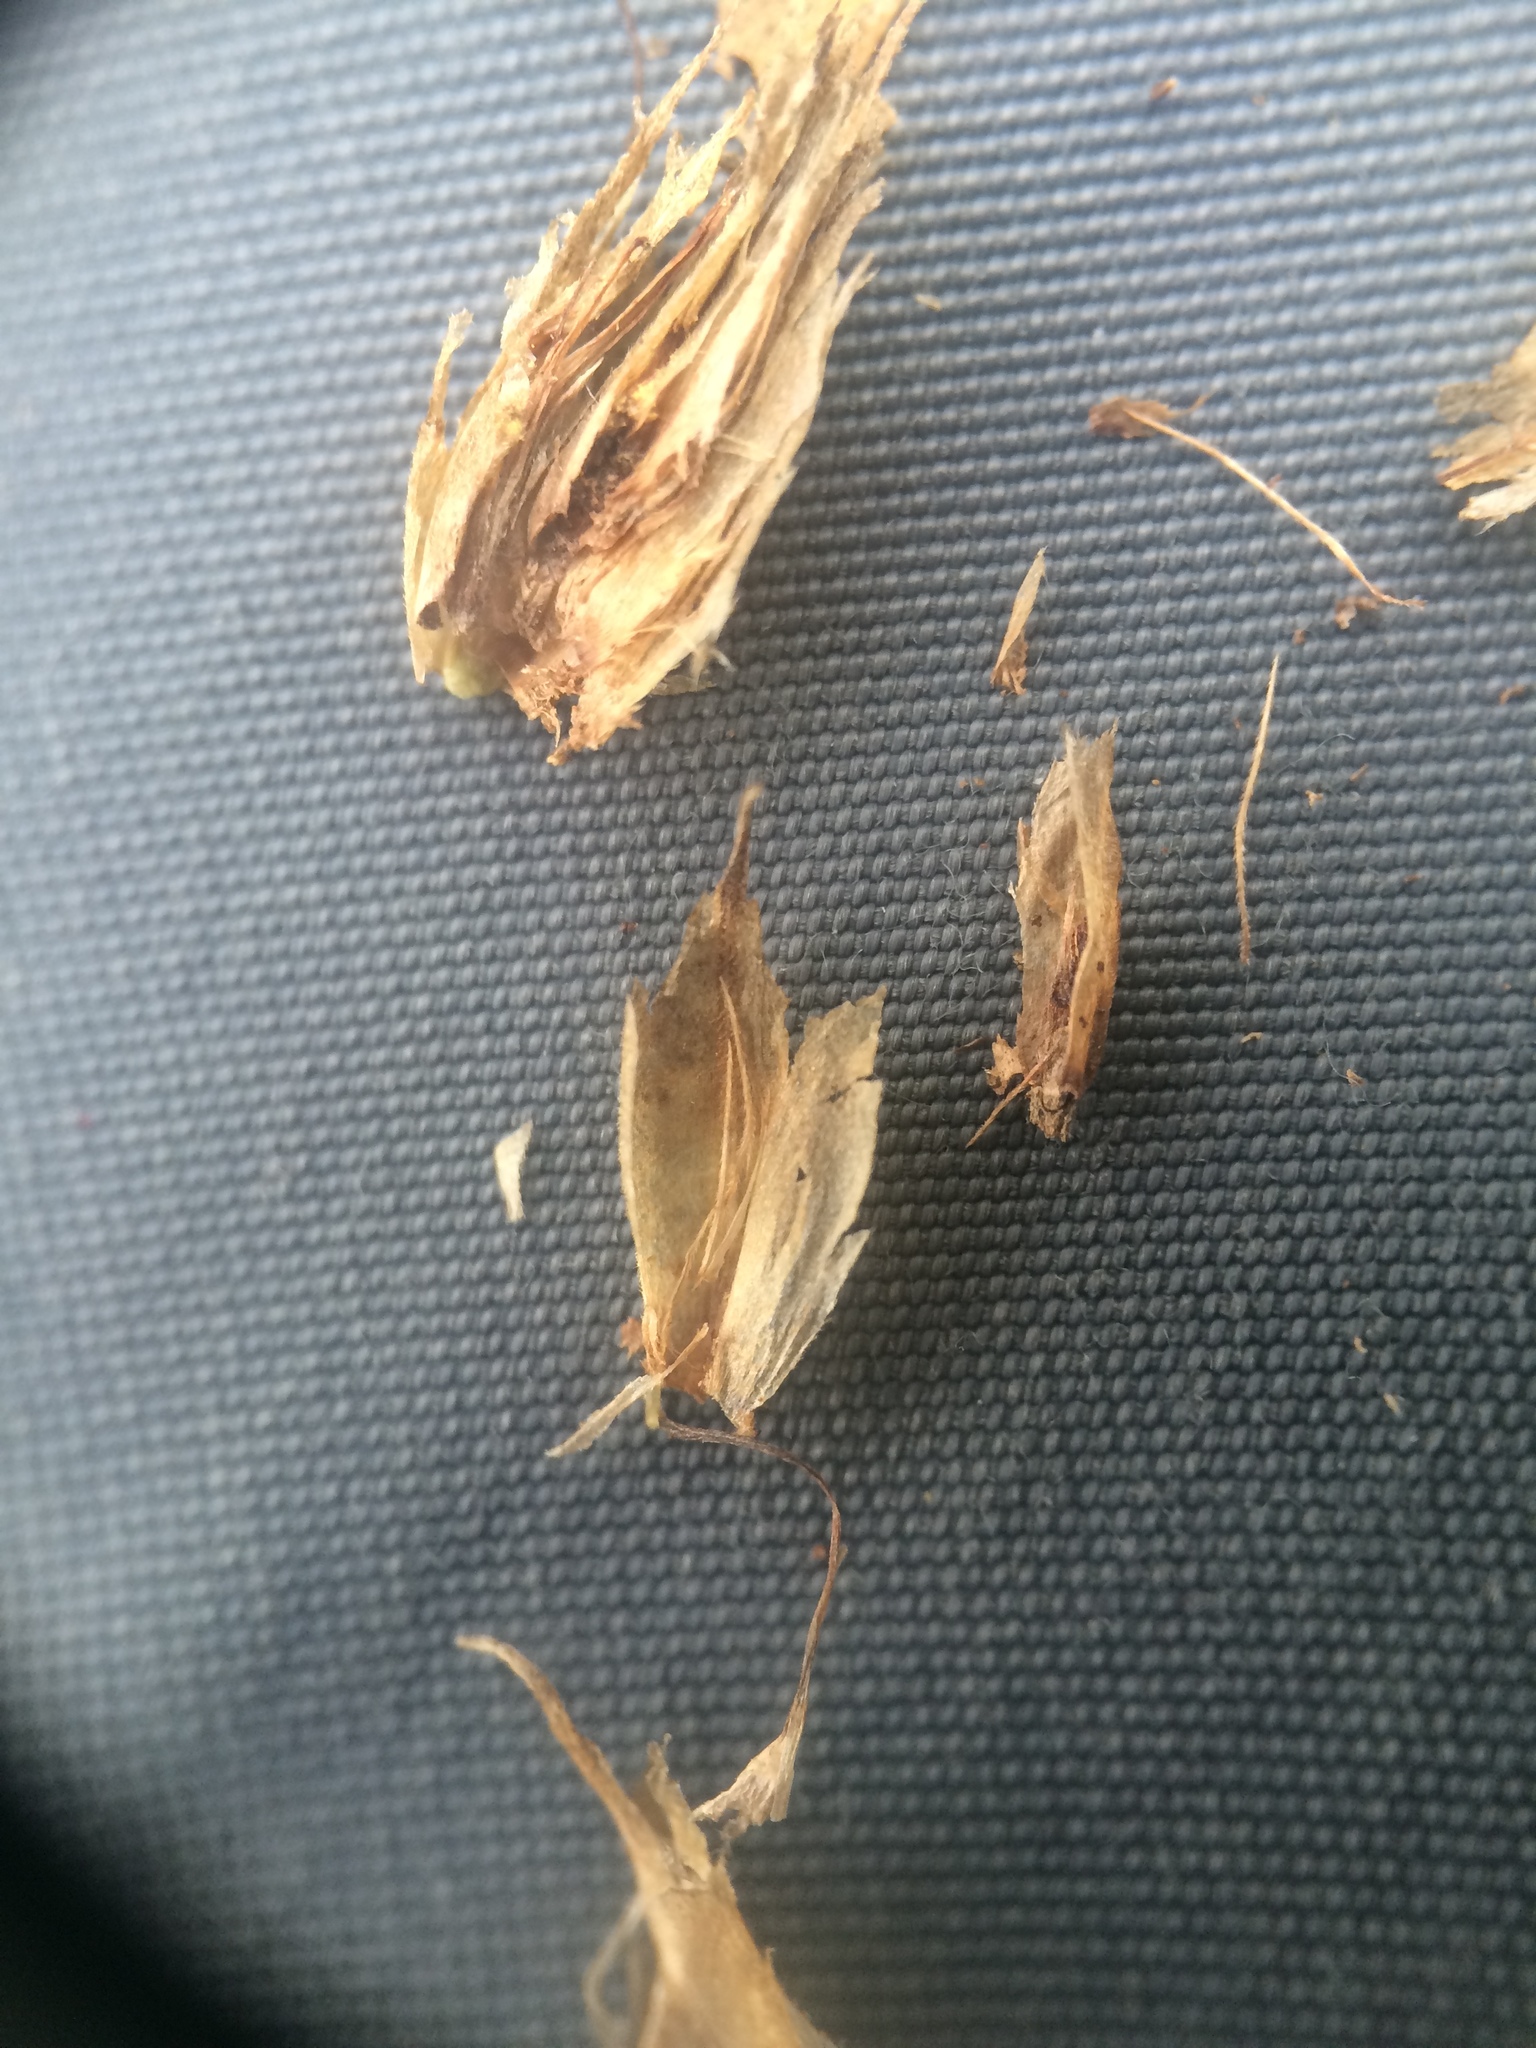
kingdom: Plantae
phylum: Tracheophyta
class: Liliopsida
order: Poales
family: Cyperaceae
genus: Bolboschoenus
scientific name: Bolboschoenus fluviatilis
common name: River bulrush
